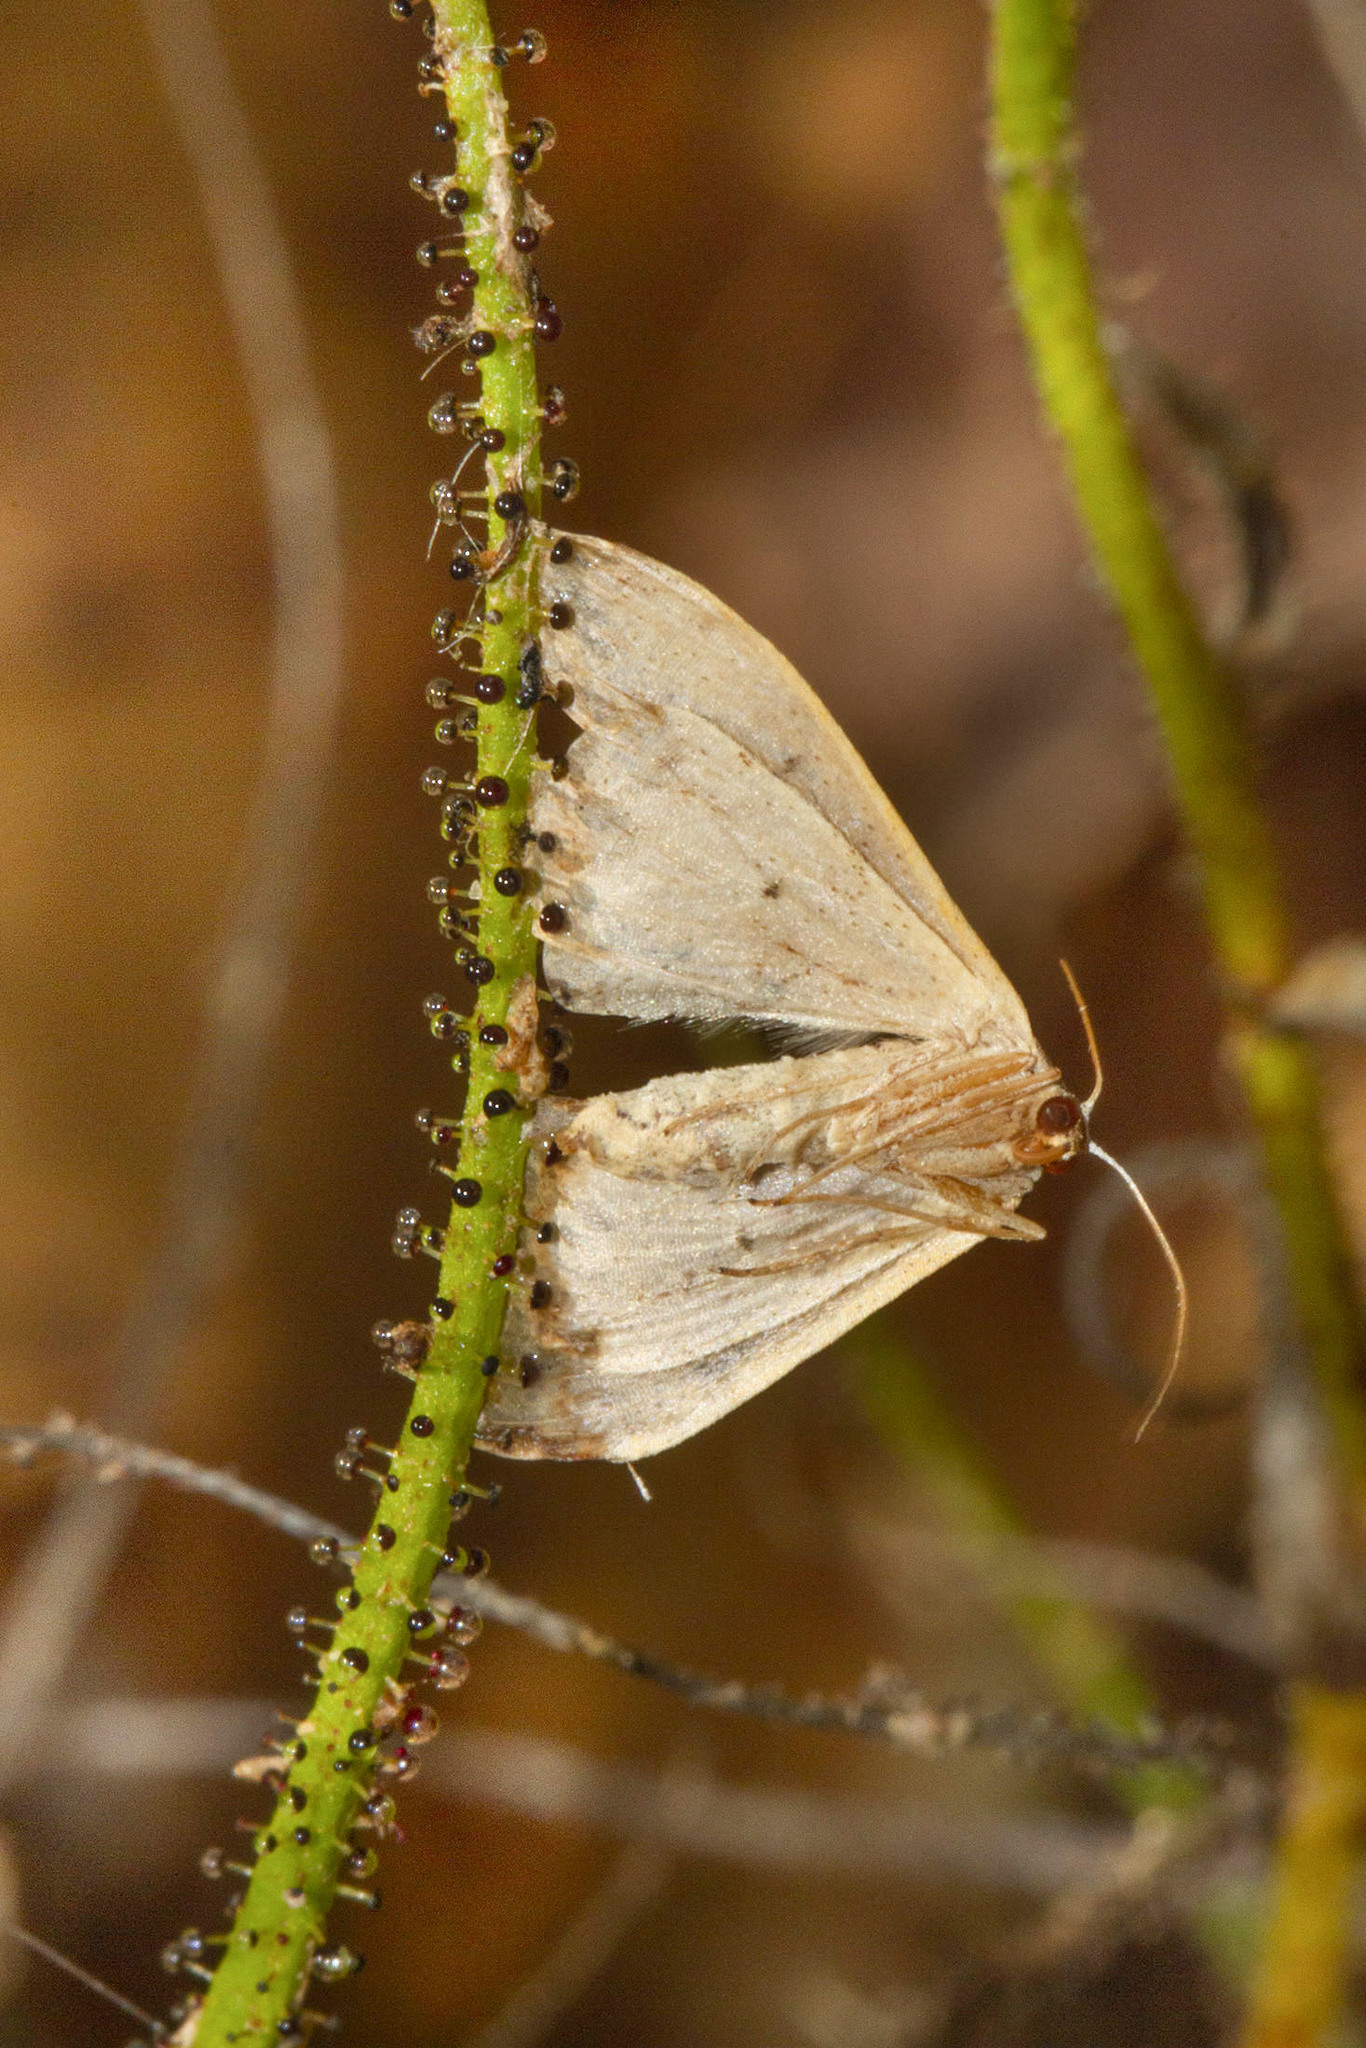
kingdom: Animalia
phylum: Arthropoda
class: Insecta
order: Lepidoptera
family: Geometridae
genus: Idaea
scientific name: Idaea degeneraria
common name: Portland ribbon wave
